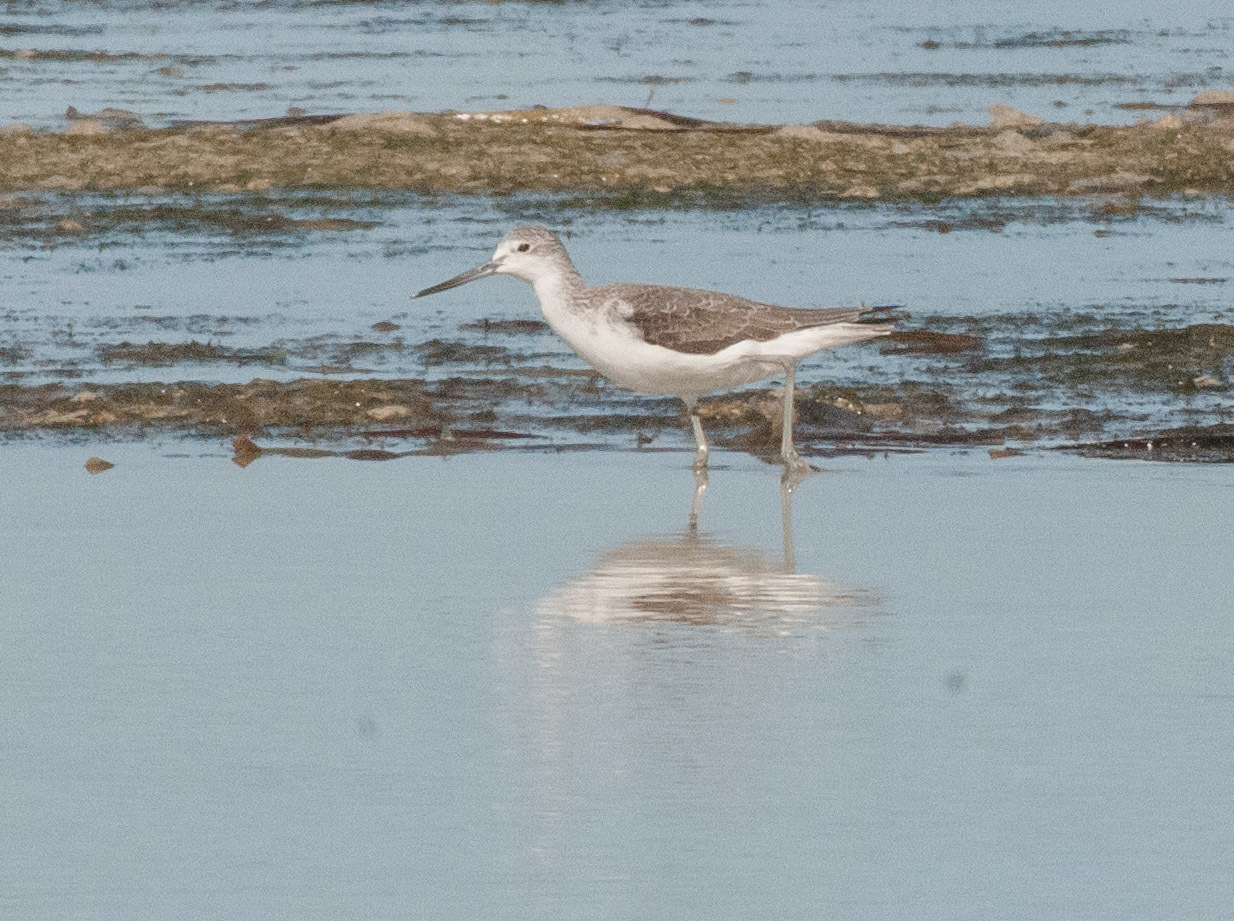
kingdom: Animalia
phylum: Chordata
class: Aves
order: Charadriiformes
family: Scolopacidae
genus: Tringa
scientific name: Tringa nebularia
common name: Common greenshank
